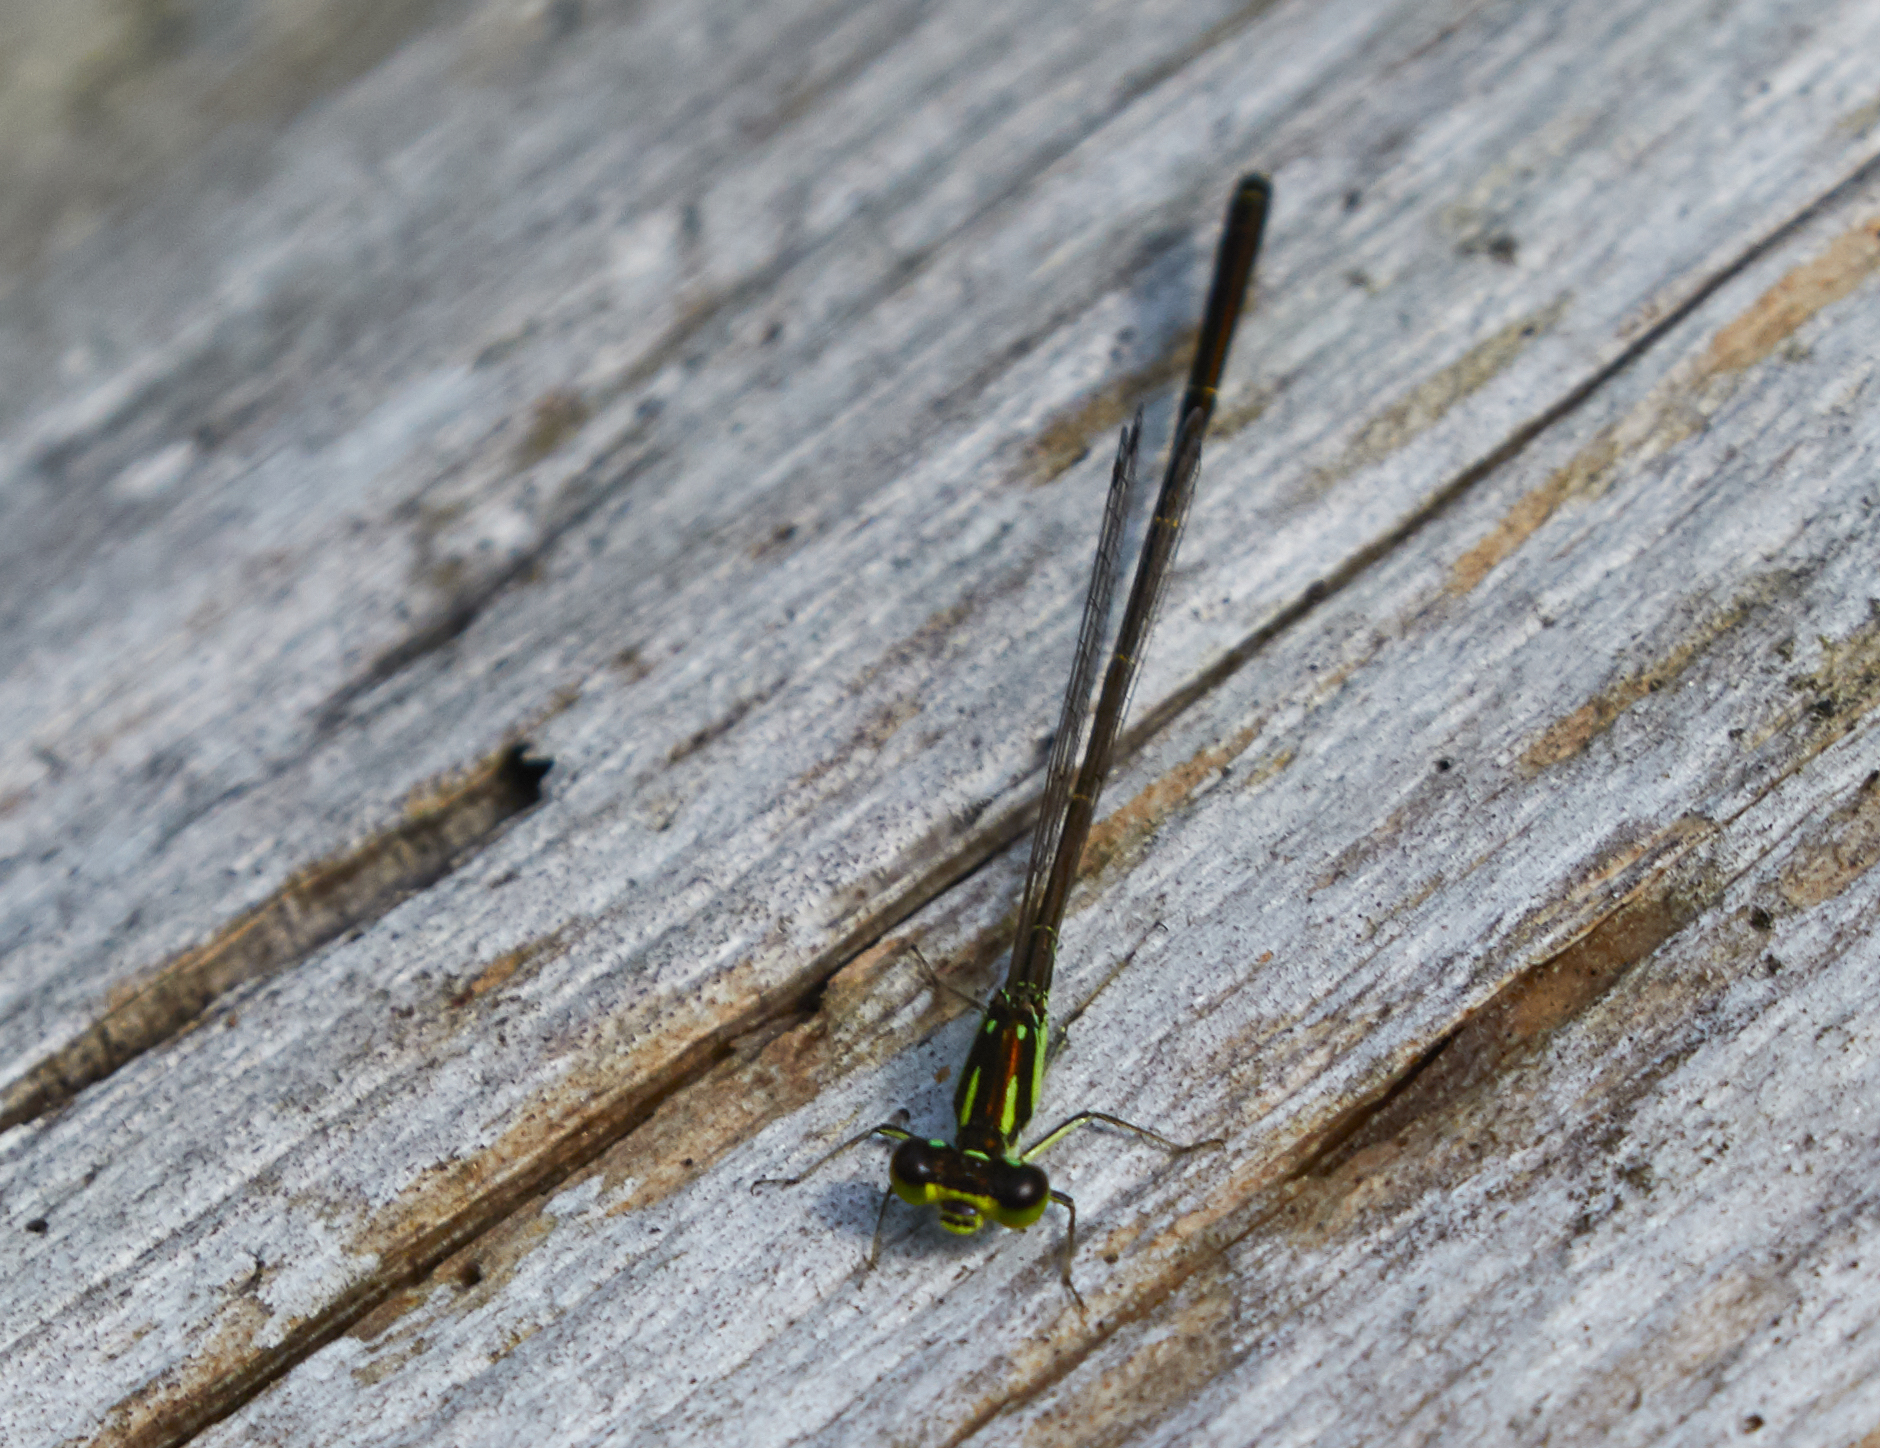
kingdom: Animalia
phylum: Arthropoda
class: Insecta
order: Odonata
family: Coenagrionidae
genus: Ischnura
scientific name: Ischnura posita
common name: Fragile forktail
